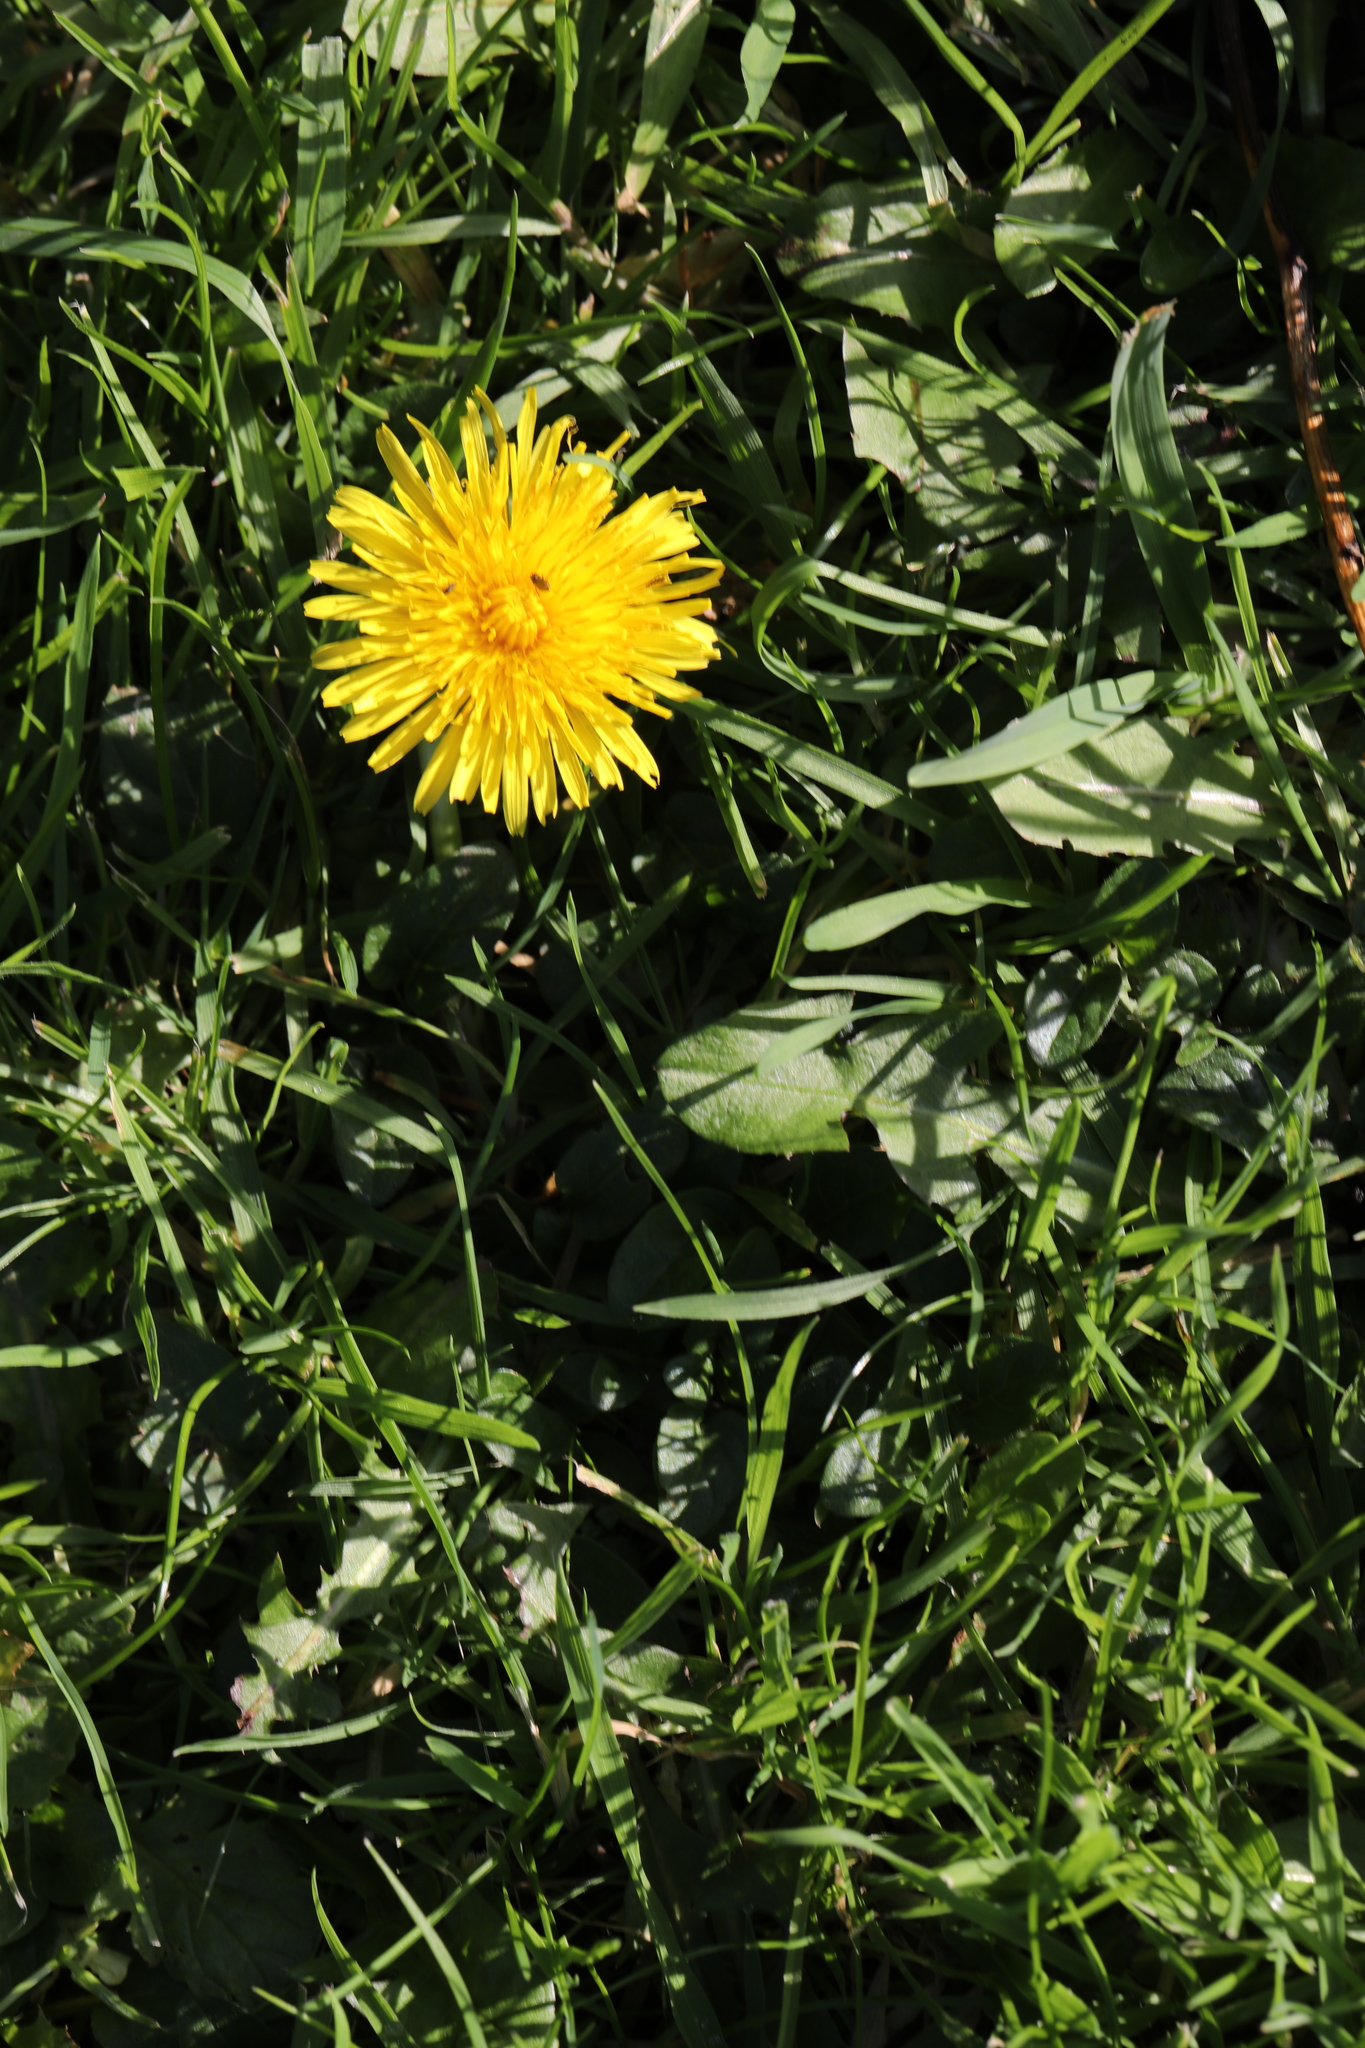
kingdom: Plantae
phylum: Tracheophyta
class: Magnoliopsida
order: Asterales
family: Asteraceae
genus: Taraxacum
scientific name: Taraxacum officinale
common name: Common dandelion
